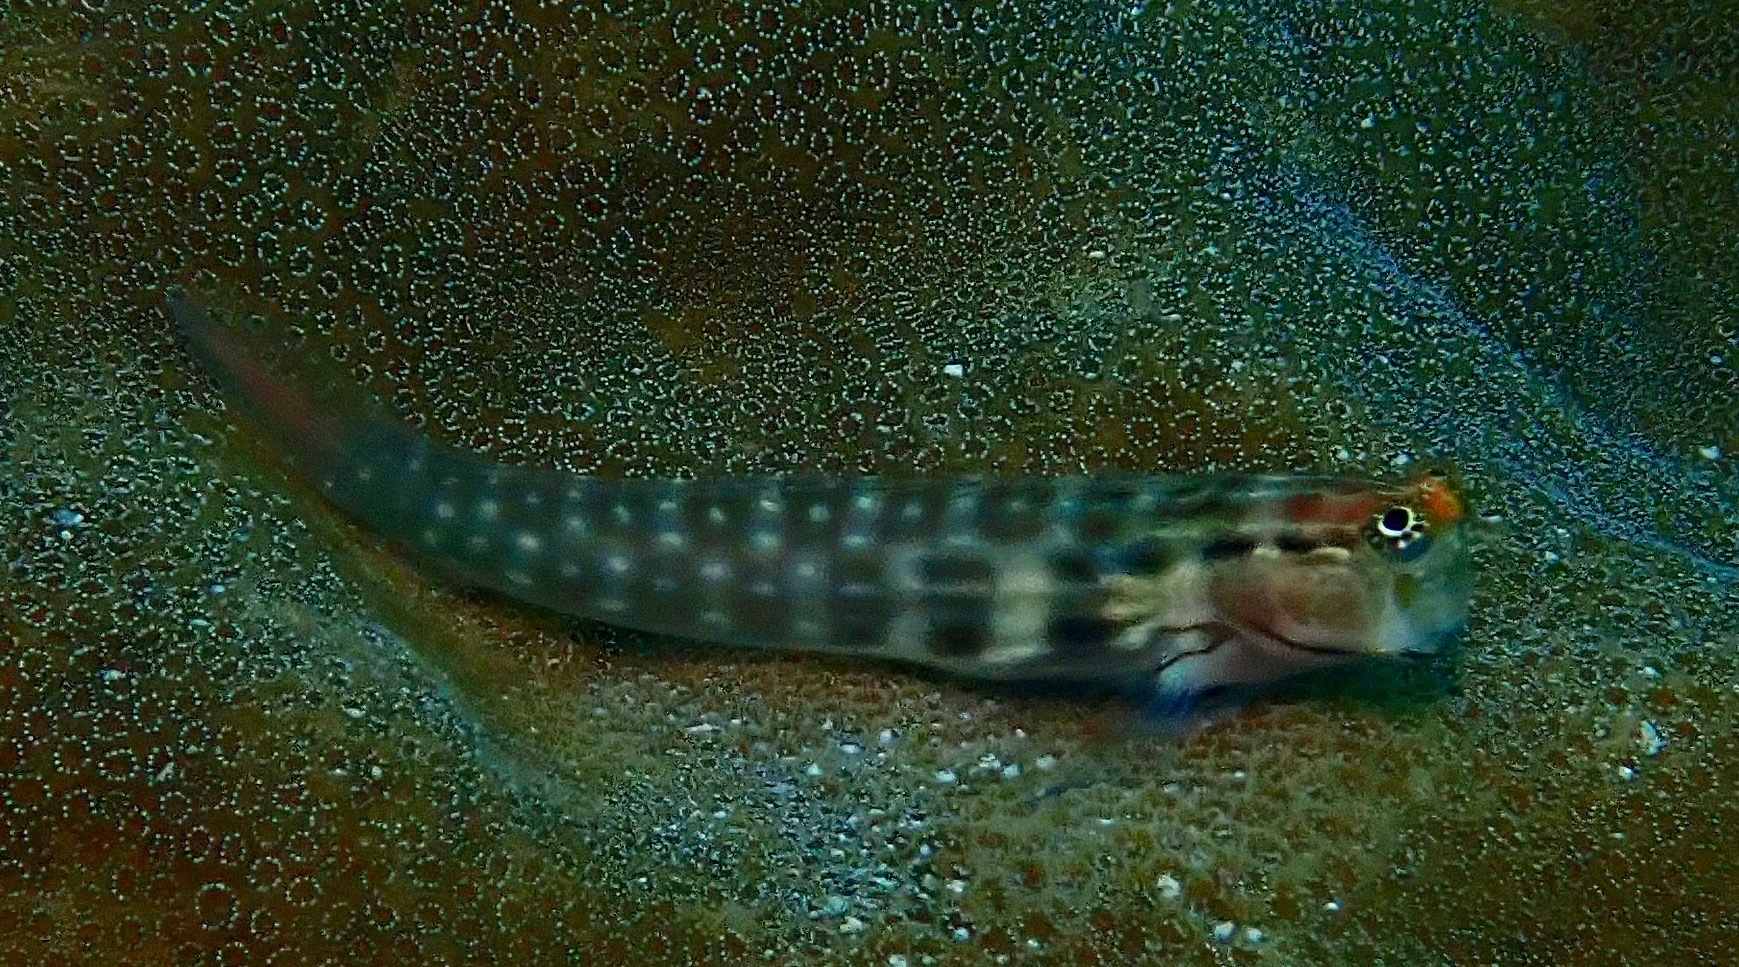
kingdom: Animalia
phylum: Chordata
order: Perciformes
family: Blenniidae
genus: Ecsenius
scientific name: Ecsenius yaeyamaensis
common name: Pale-spotted combtooth-blenny
